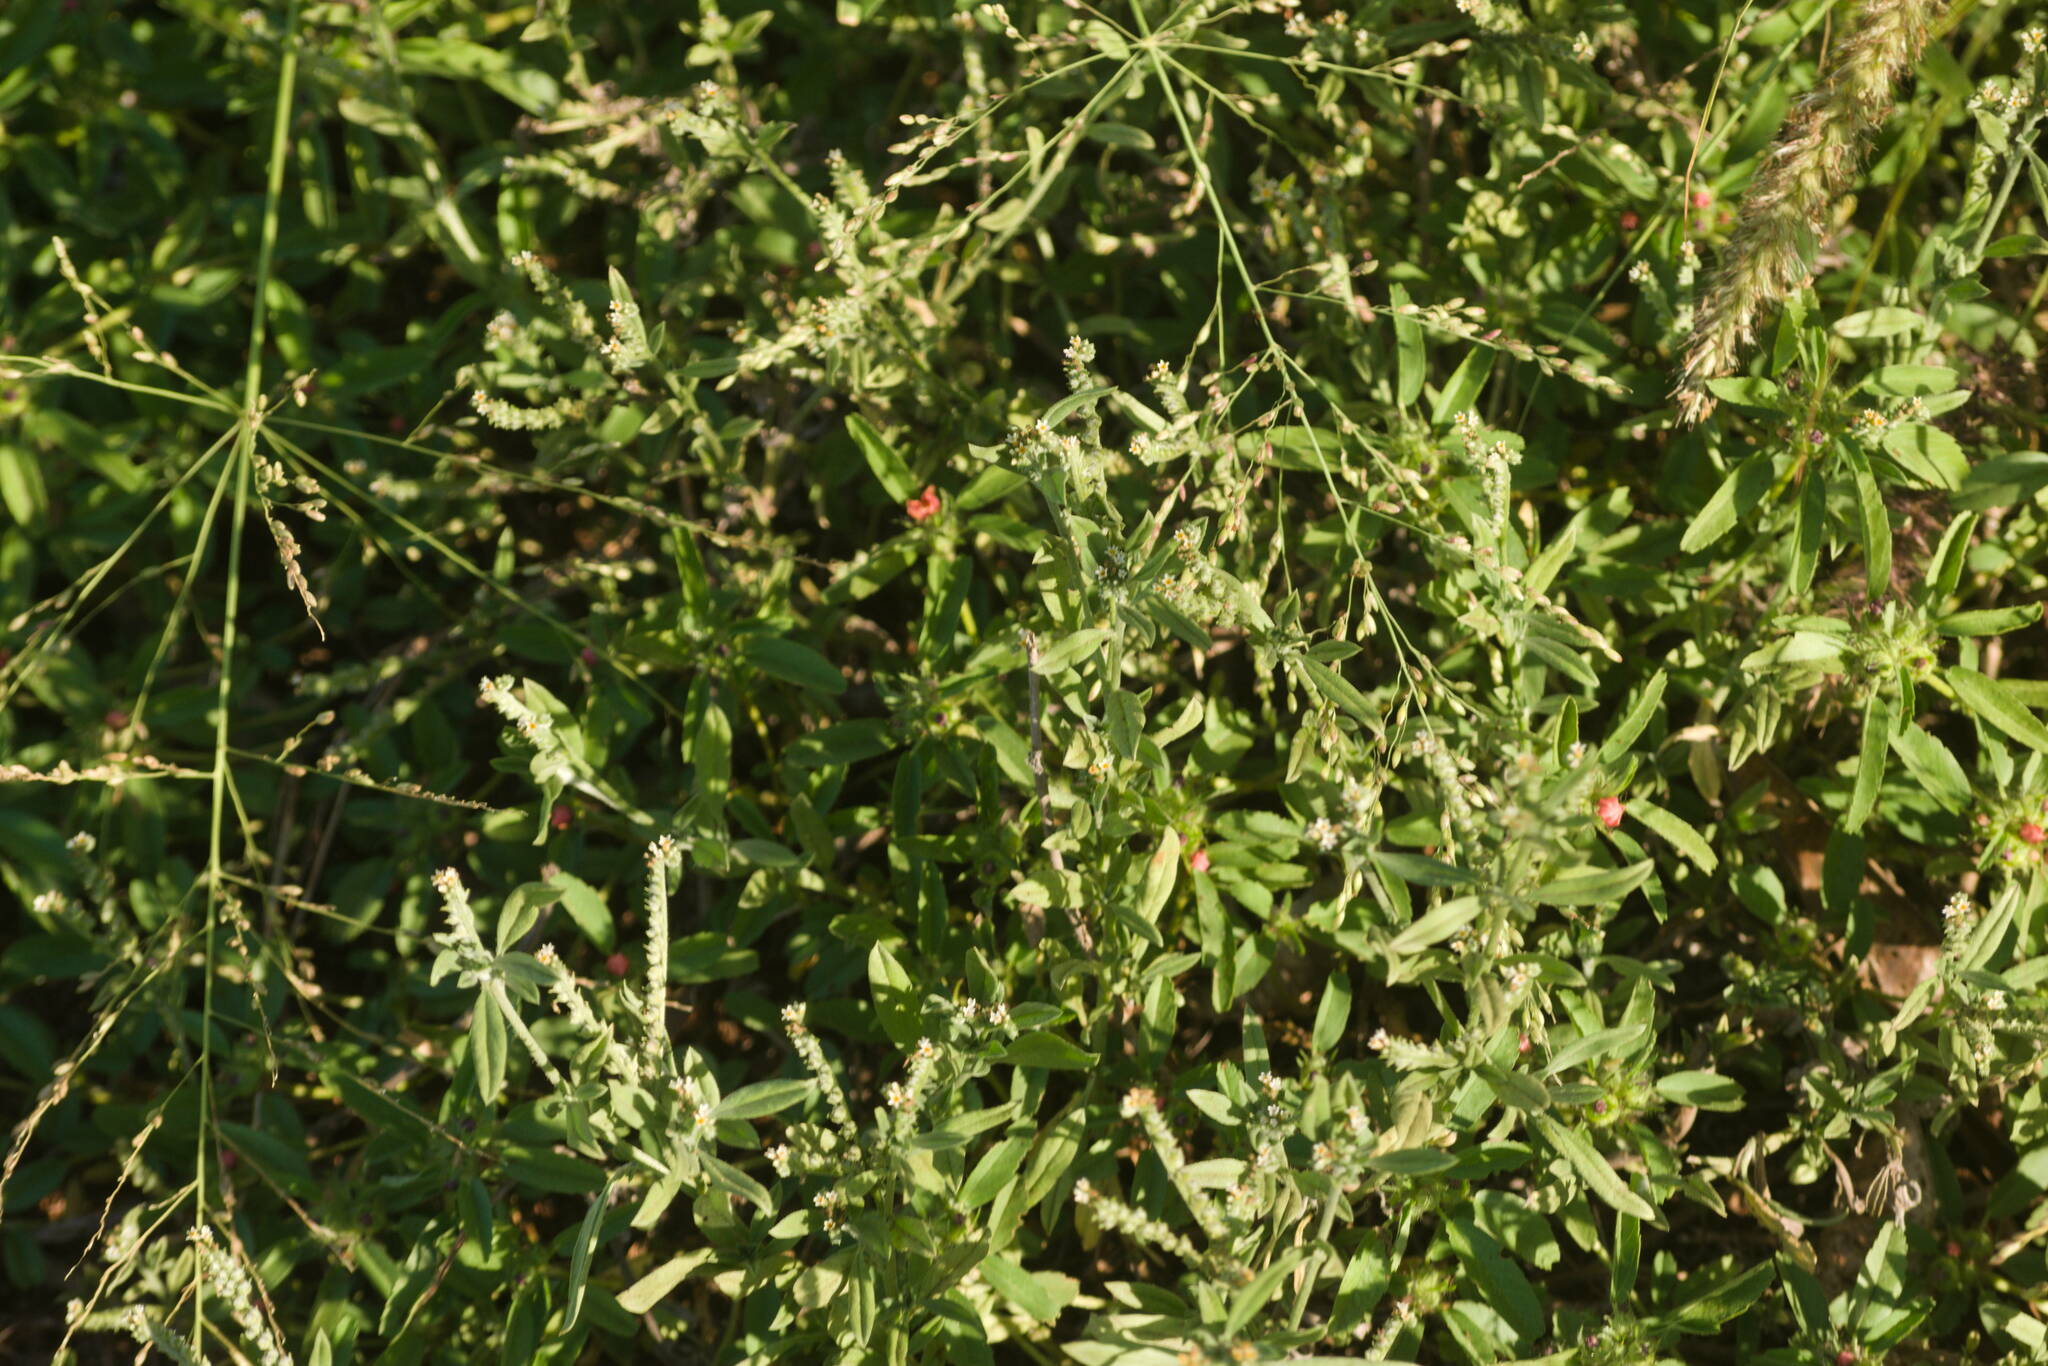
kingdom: Plantae
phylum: Tracheophyta
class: Magnoliopsida
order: Boraginales
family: Heliotropiaceae
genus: Euploca
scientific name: Euploca procumbens
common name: Fourspike heliotrope
